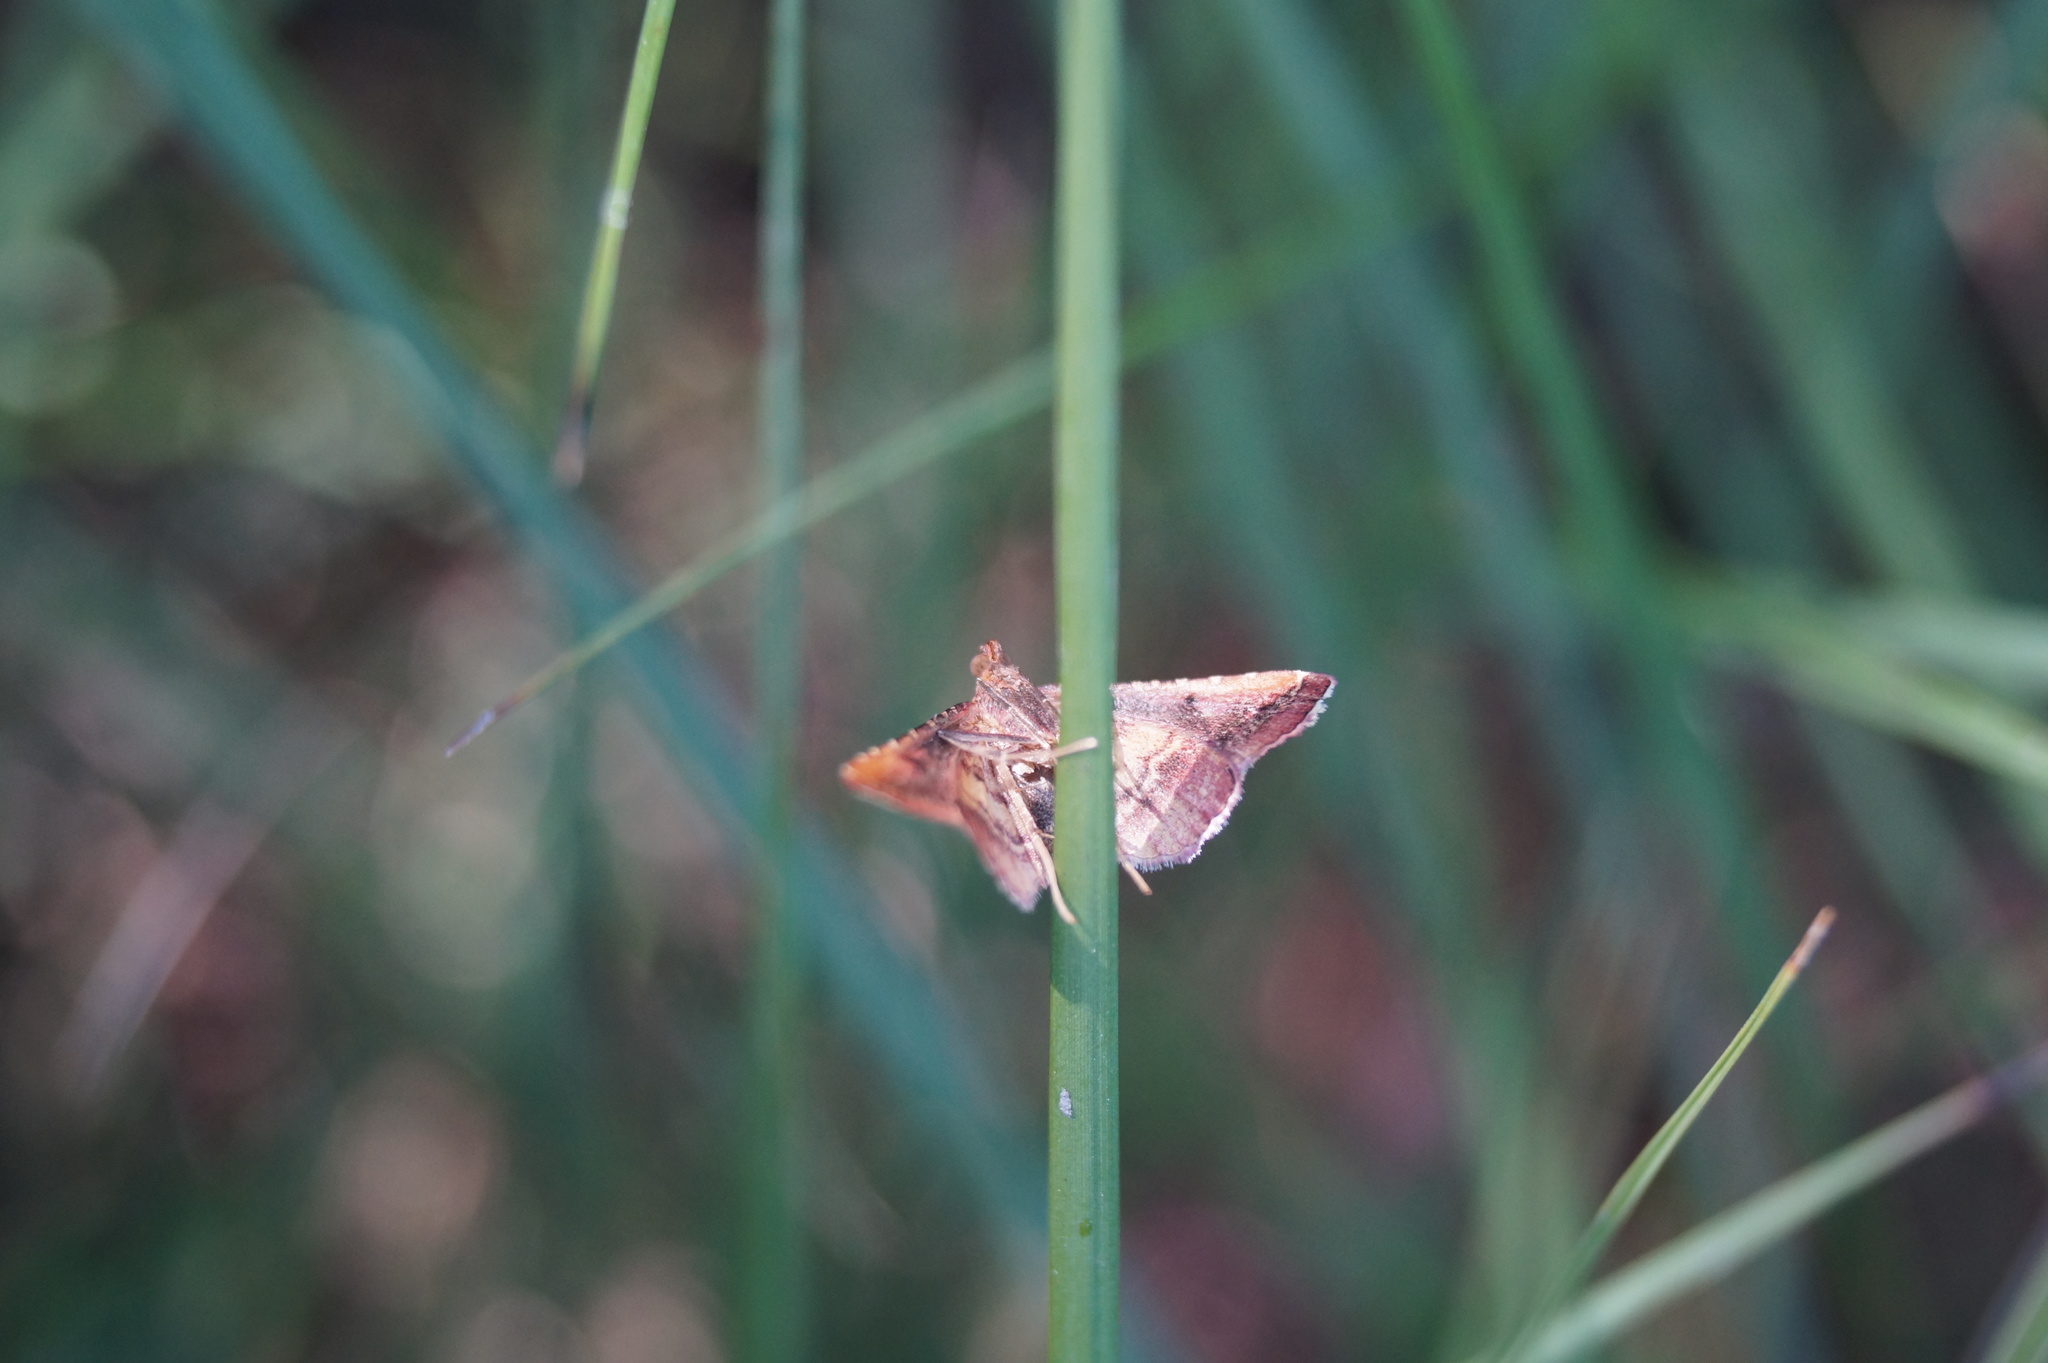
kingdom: Animalia
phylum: Arthropoda
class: Insecta
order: Lepidoptera
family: Pyralidae
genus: Endotricha
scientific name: Endotricha flammealis
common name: Rosy tabby
